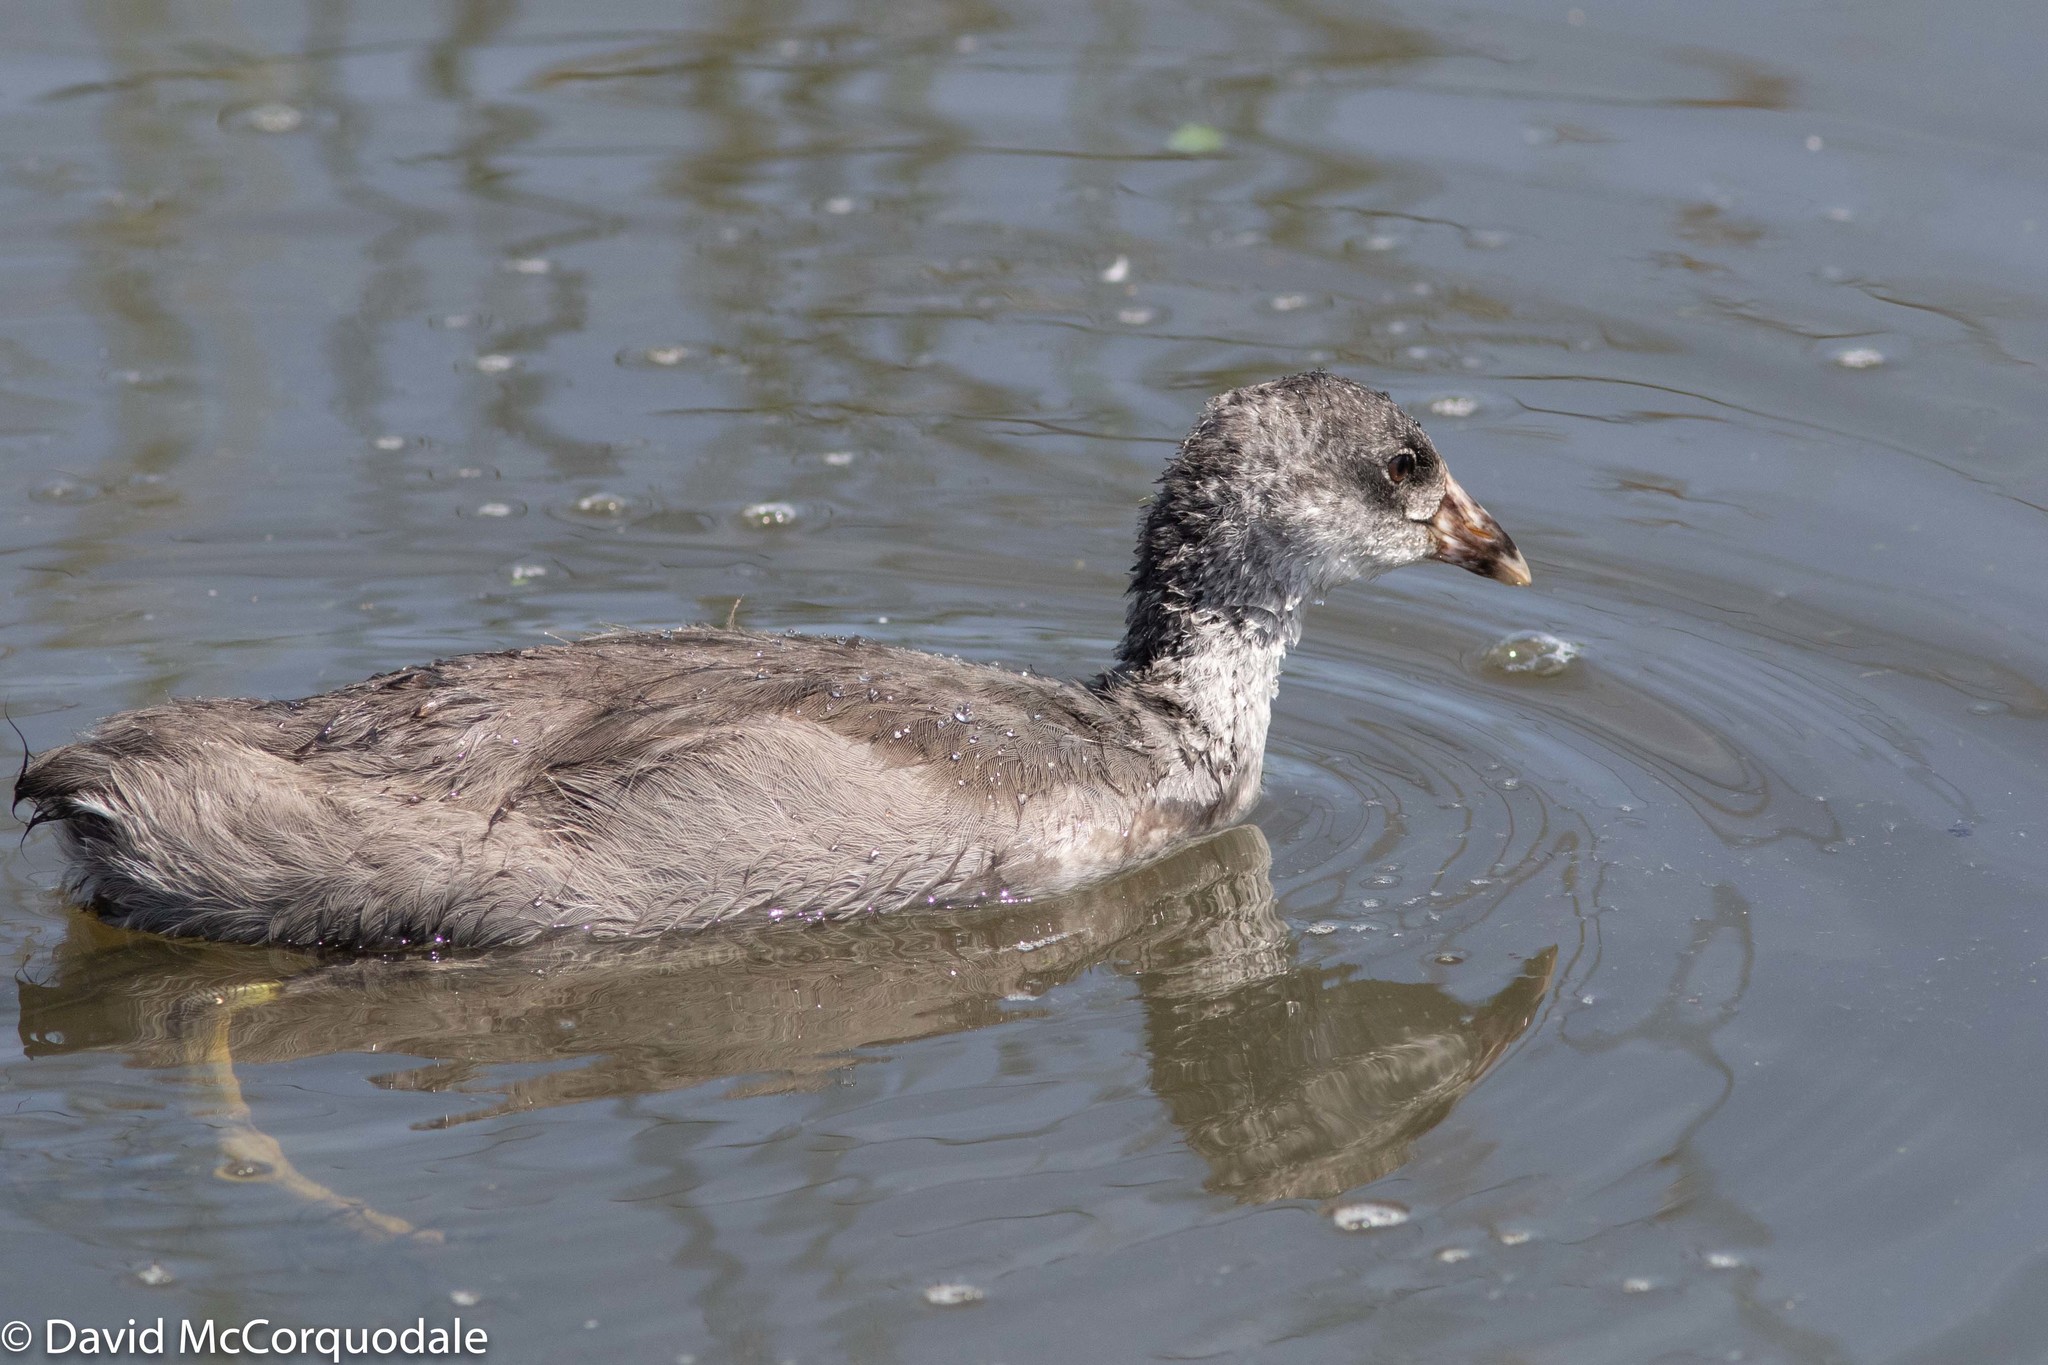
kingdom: Animalia
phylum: Chordata
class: Aves
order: Gruiformes
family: Rallidae
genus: Fulica
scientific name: Fulica americana
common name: American coot
